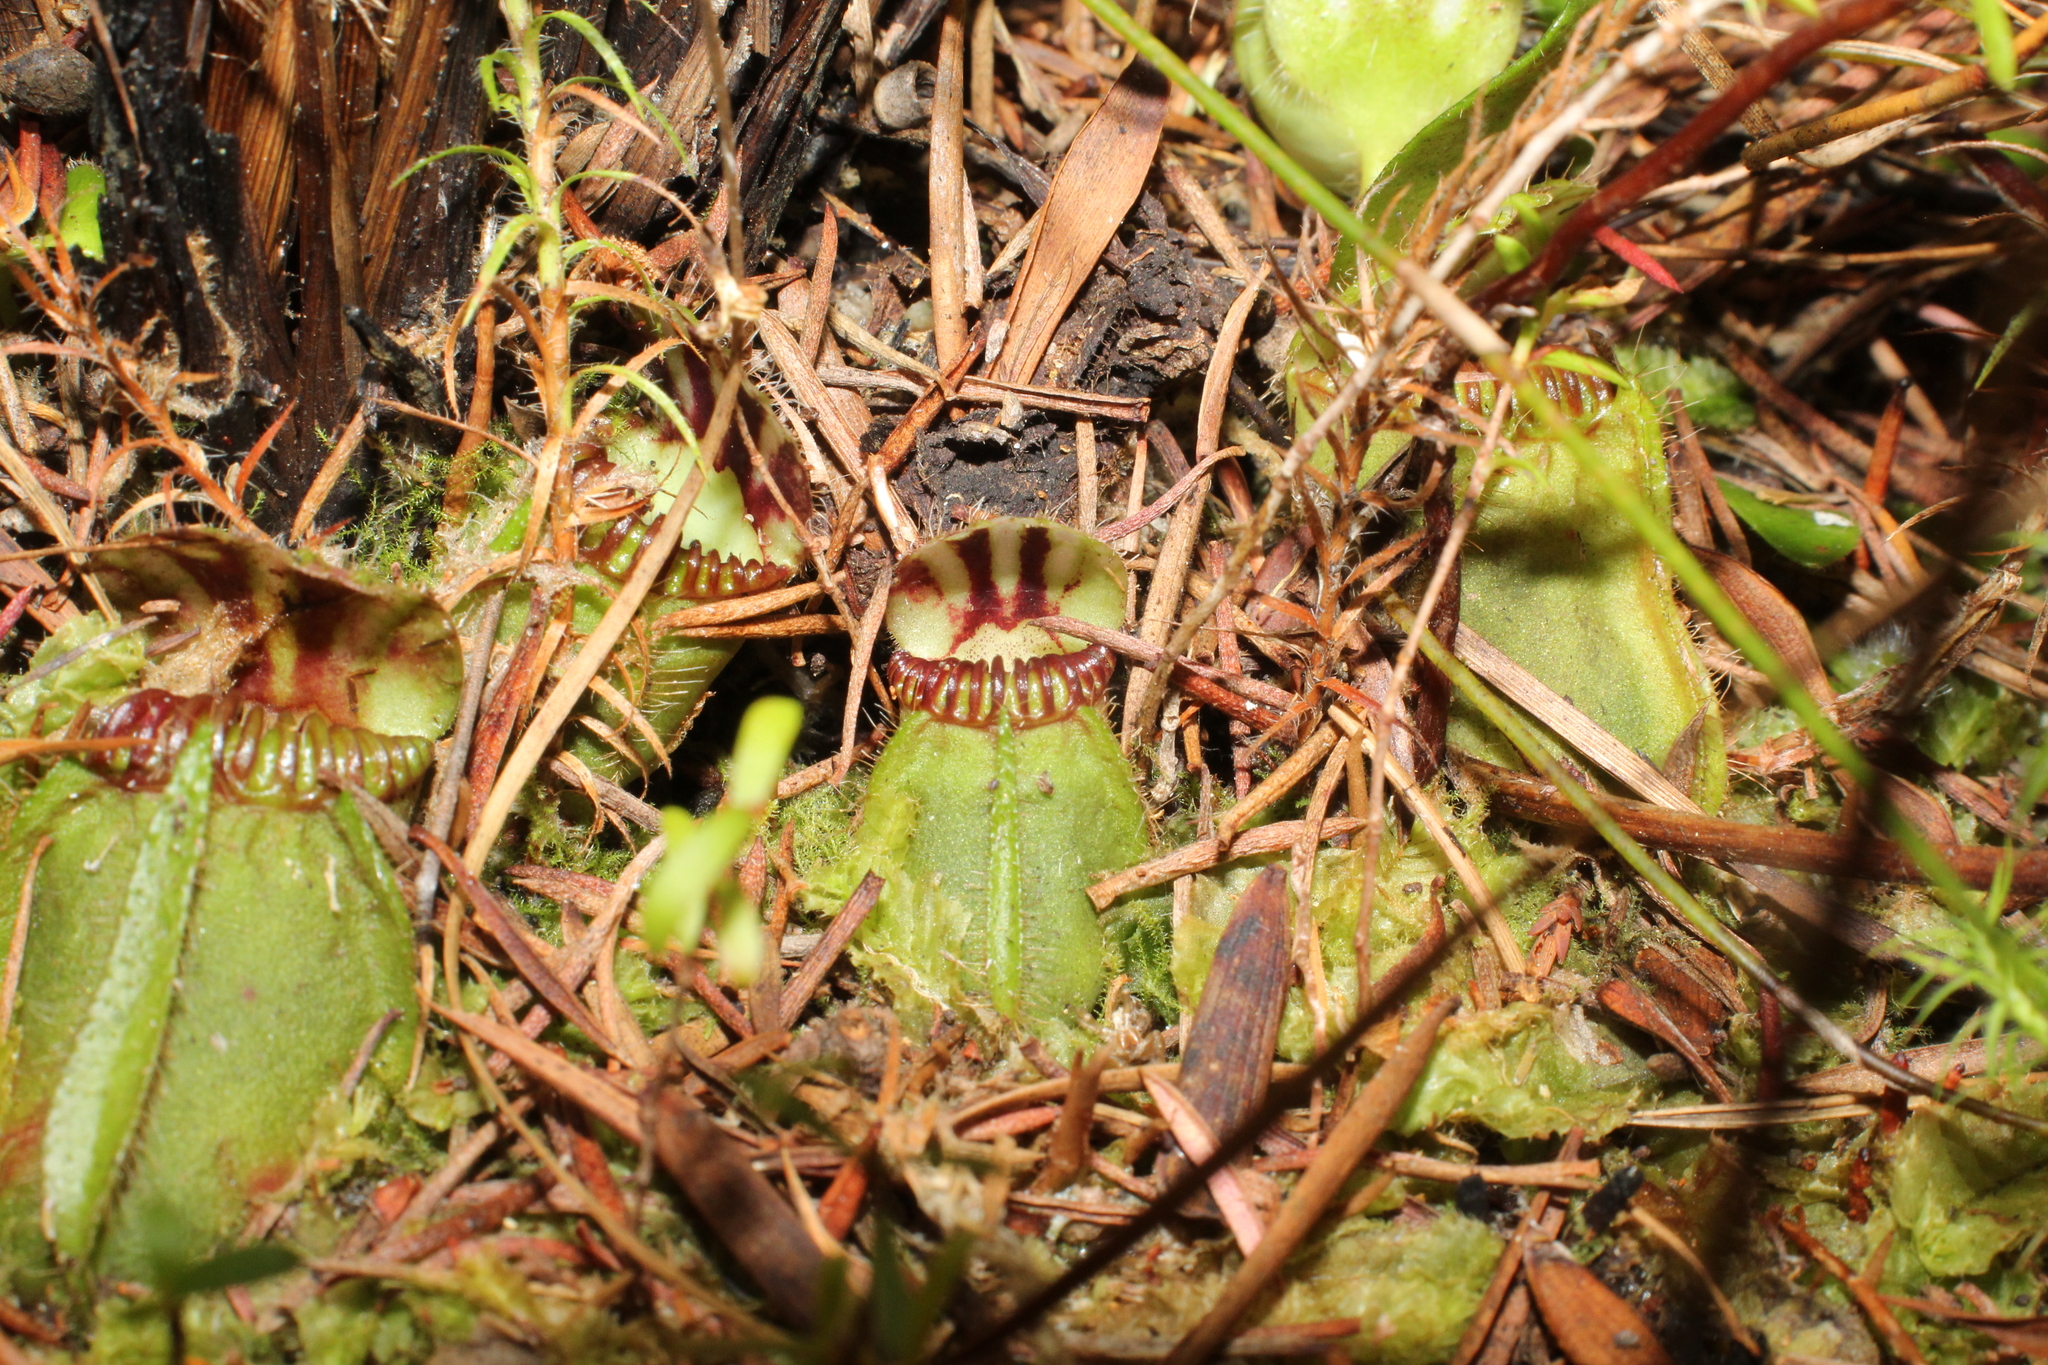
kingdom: Plantae
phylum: Tracheophyta
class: Magnoliopsida
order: Oxalidales
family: Cephalotaceae
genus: Cephalotus
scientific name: Cephalotus follicularis
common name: Australian pitcher plant
